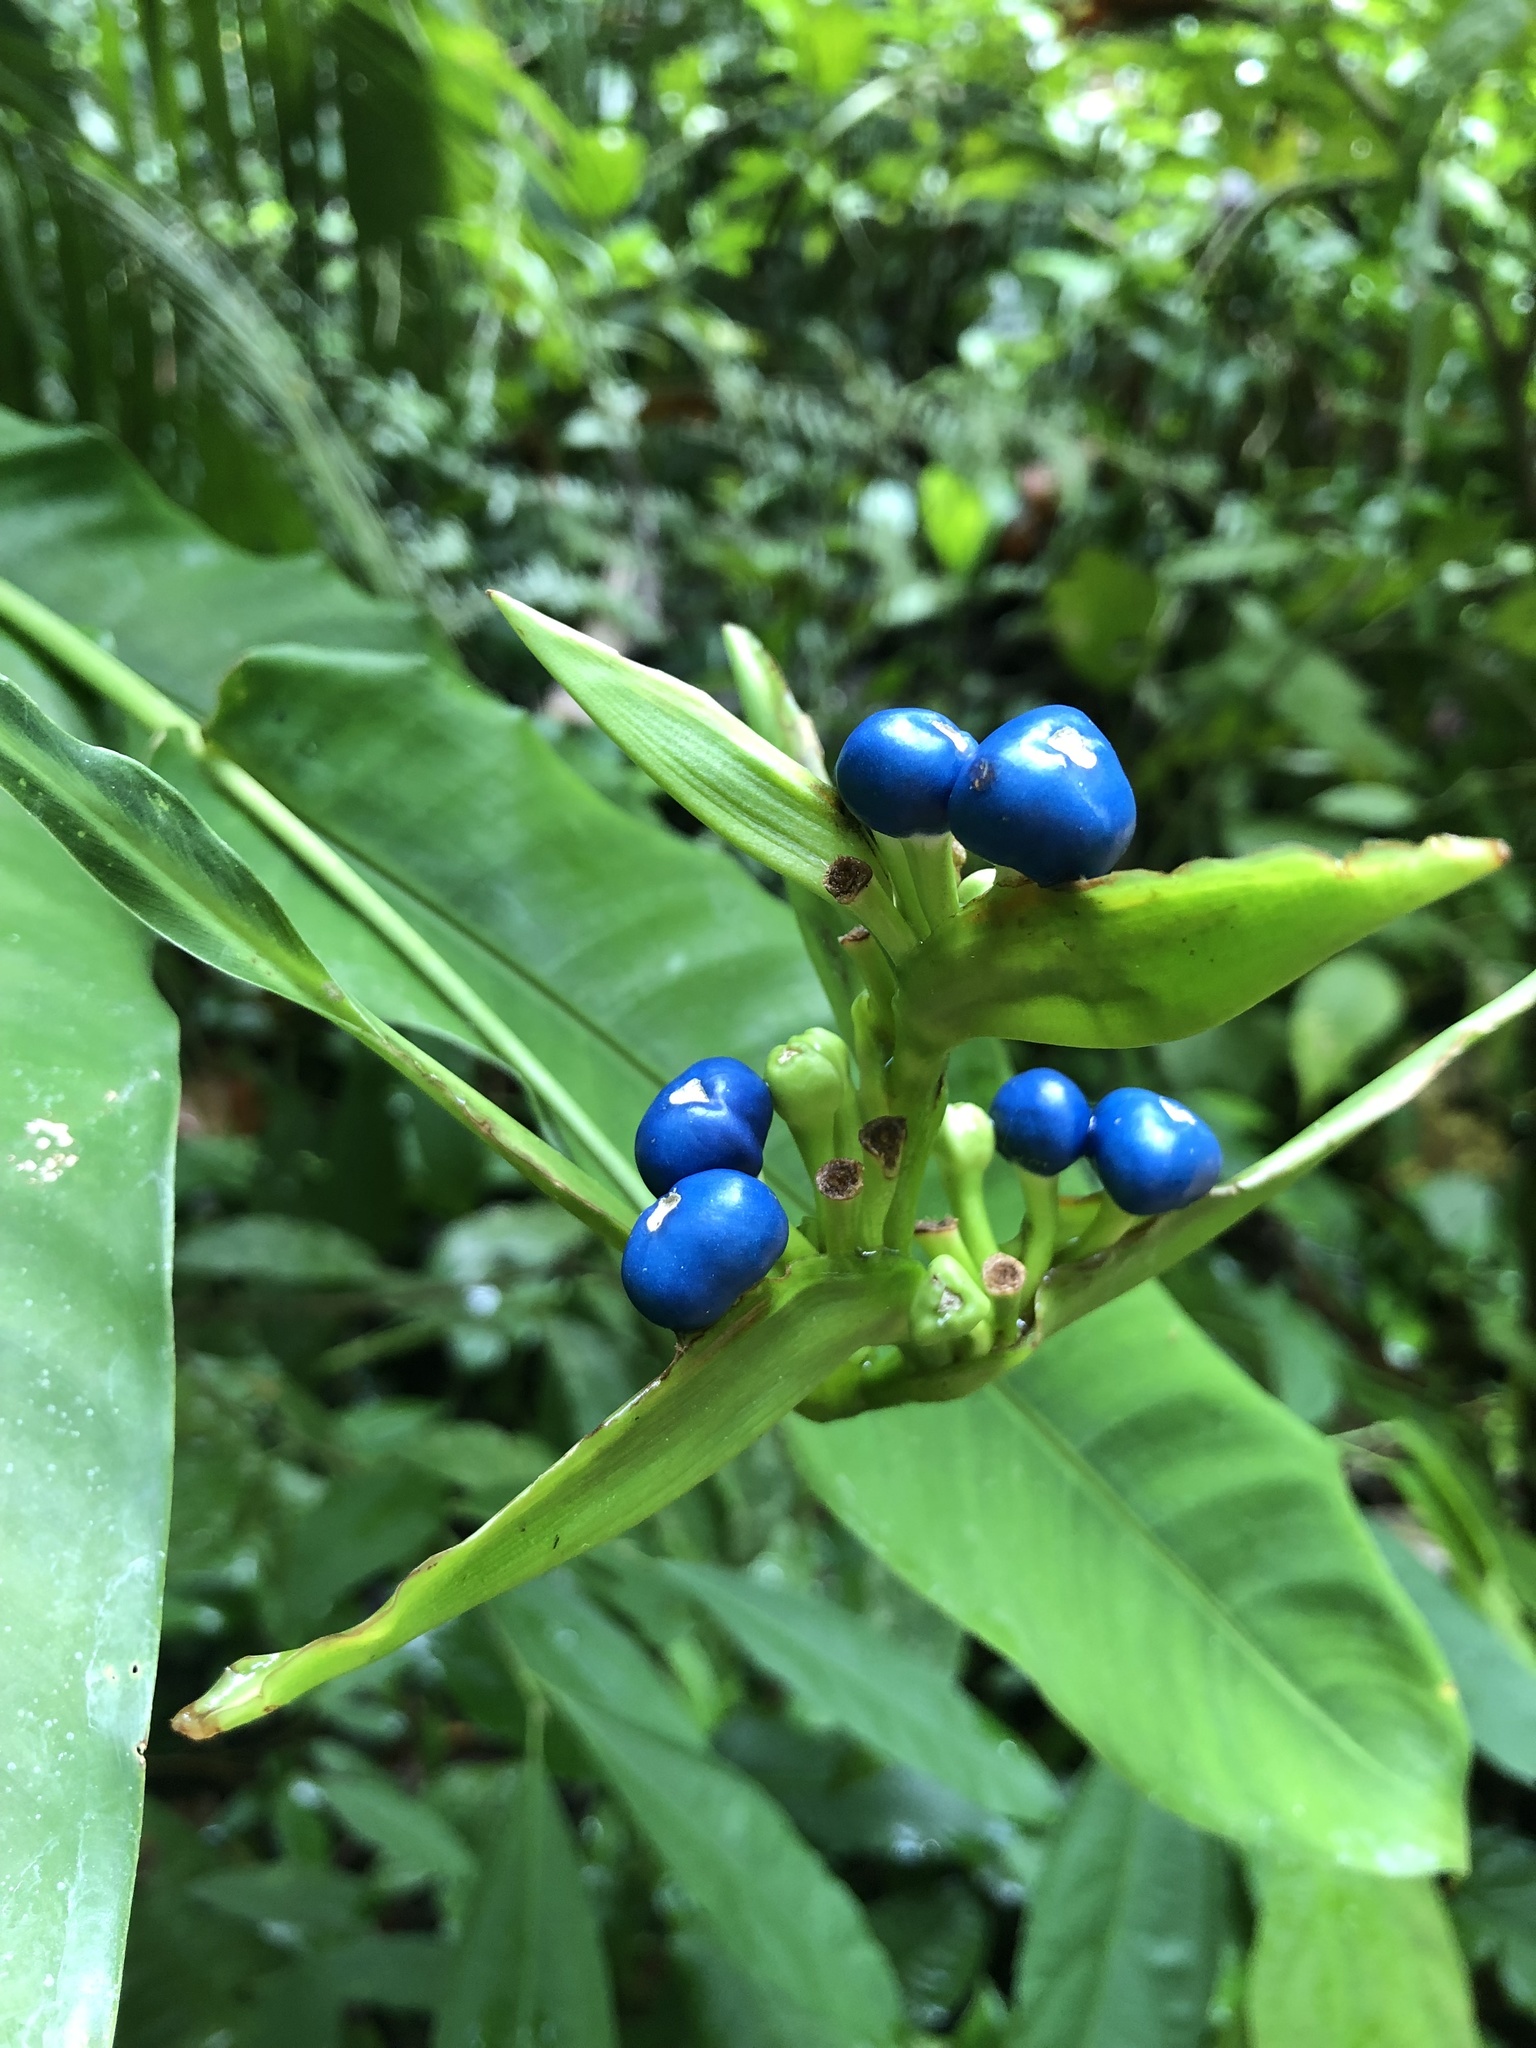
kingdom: Plantae
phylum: Tracheophyta
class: Liliopsida
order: Zingiberales
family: Heliconiaceae
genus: Heliconia
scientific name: Heliconia aurantiaca
